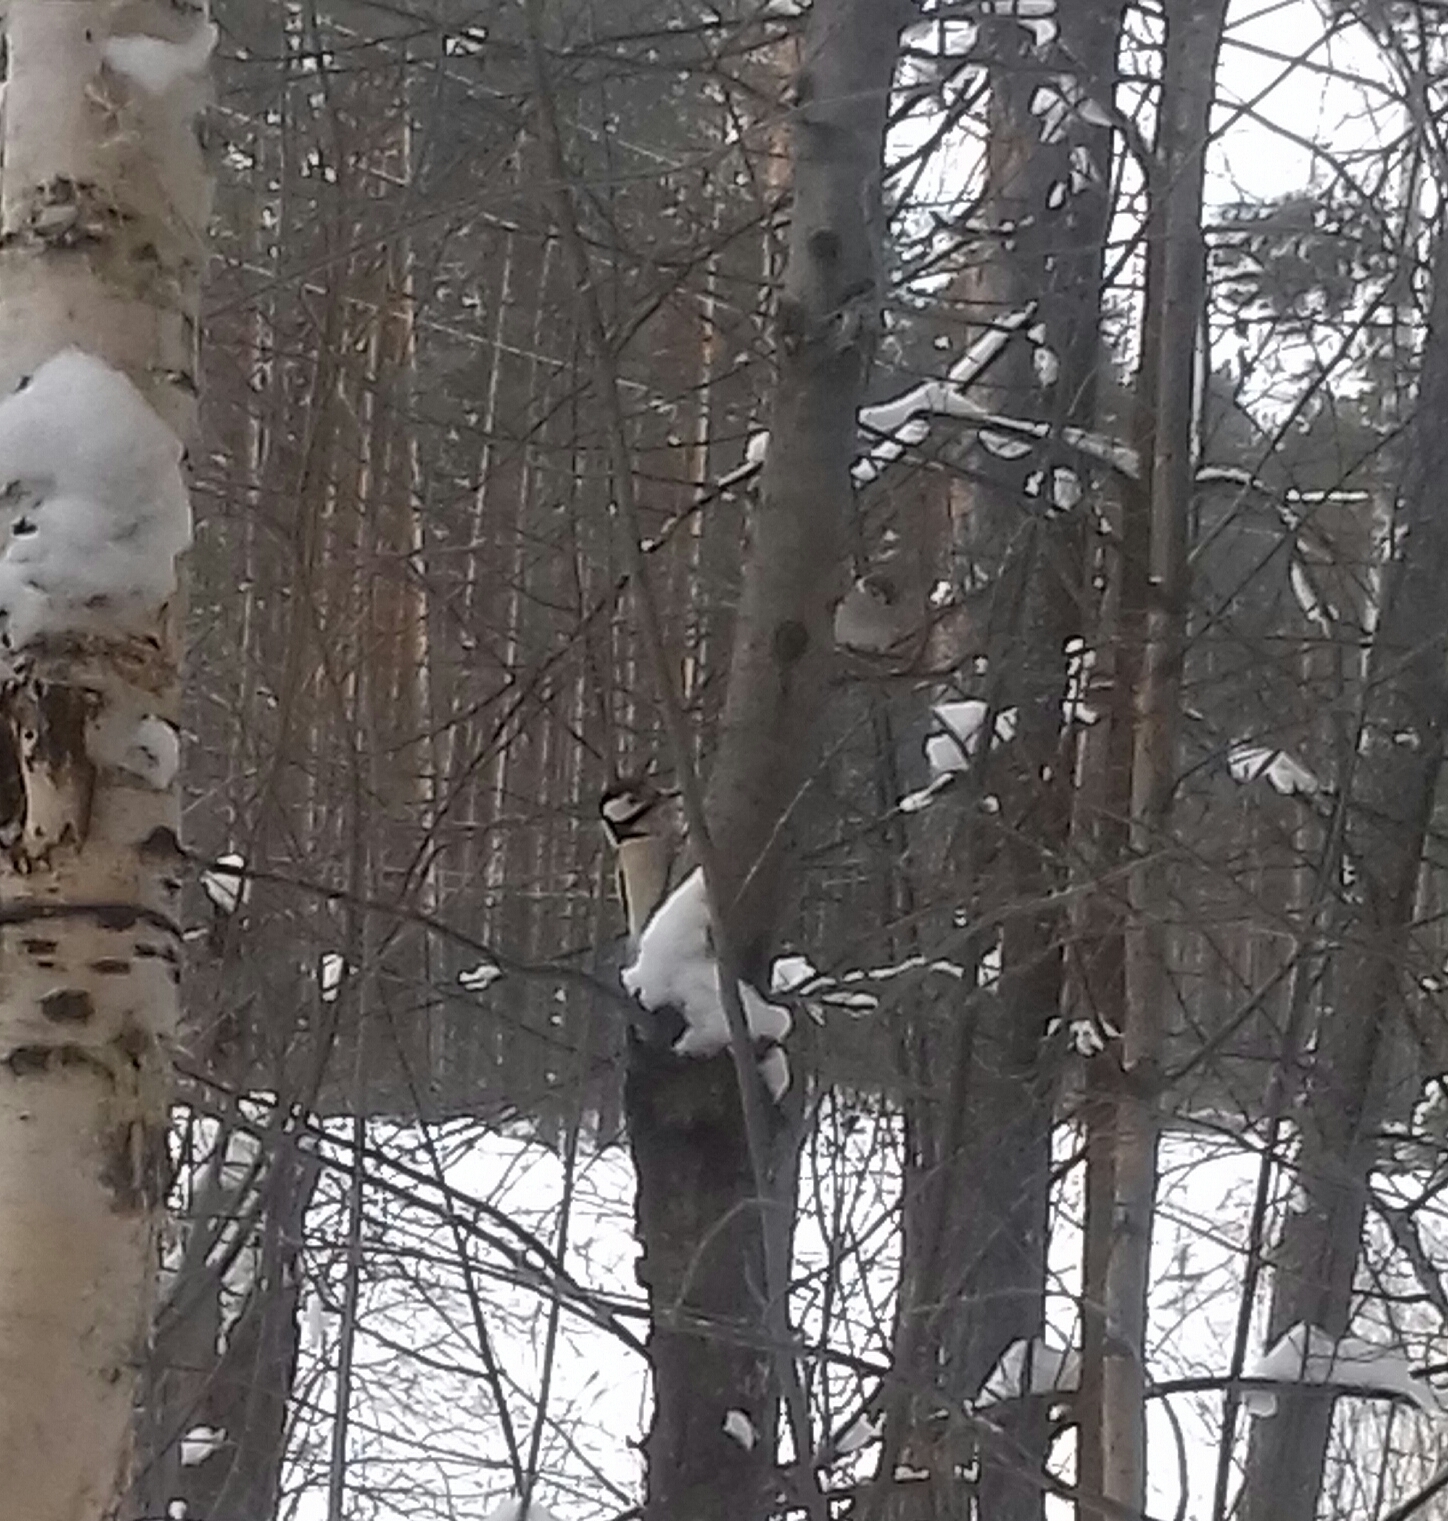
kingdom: Animalia
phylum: Chordata
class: Aves
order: Piciformes
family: Picidae
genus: Dendrocopos
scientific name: Dendrocopos major
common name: Great spotted woodpecker
